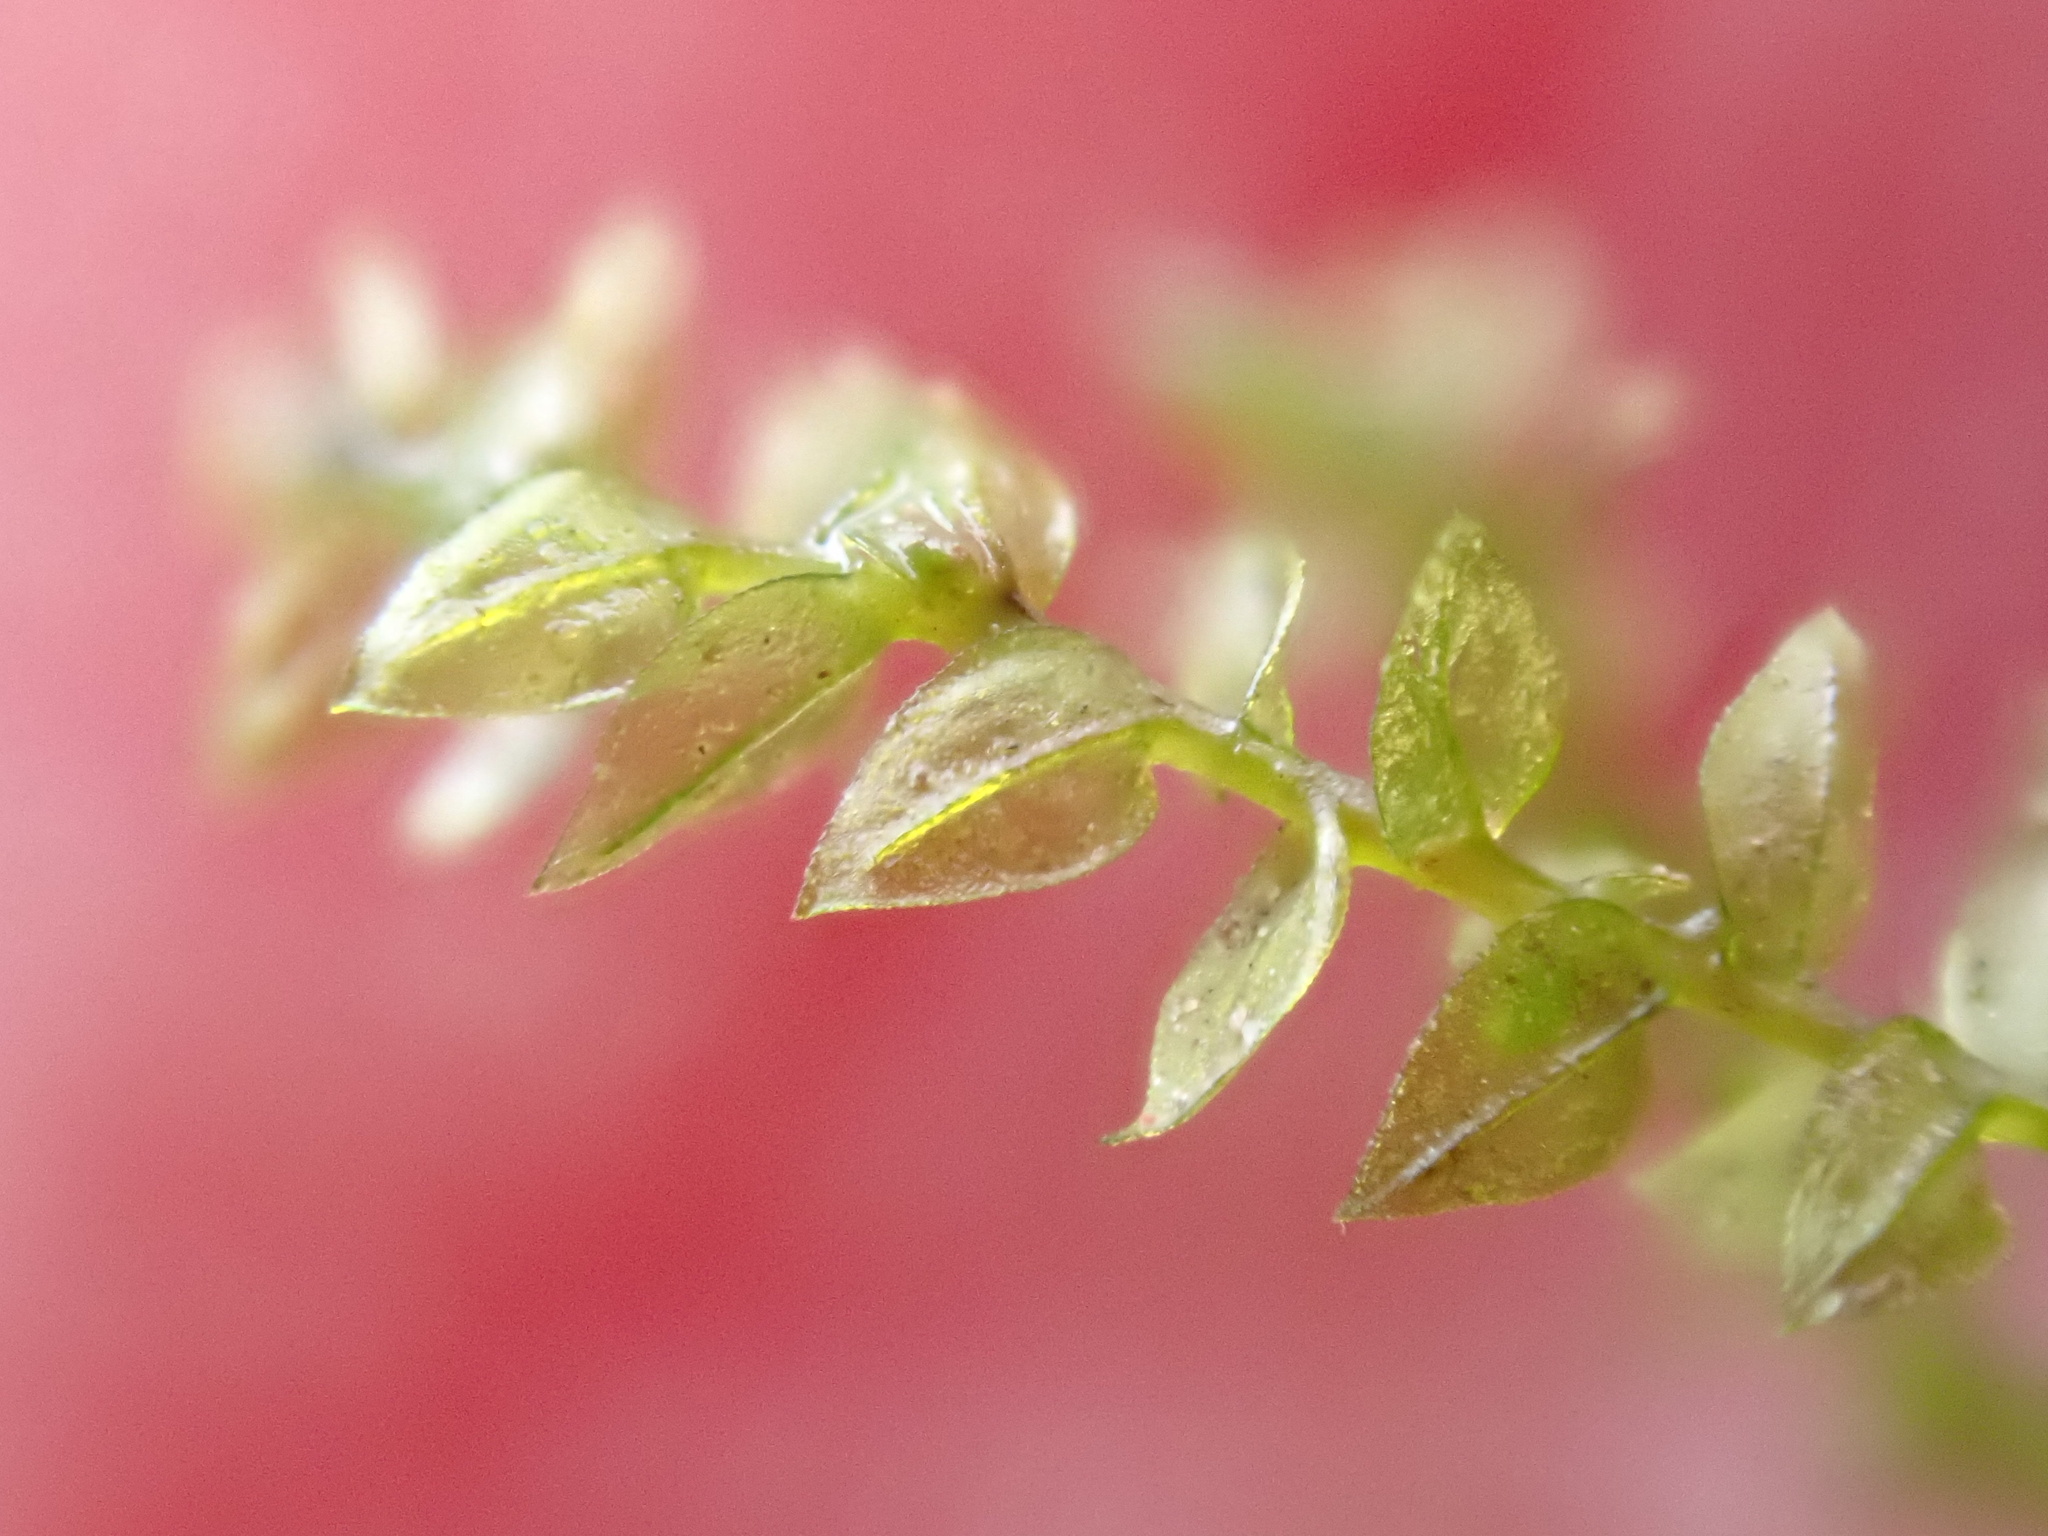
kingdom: Plantae
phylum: Bryophyta
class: Bryopsida
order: Hypnales
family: Brachytheciaceae
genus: Oxyrrhynchium
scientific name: Oxyrrhynchium hians
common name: Spreading beaked moss
